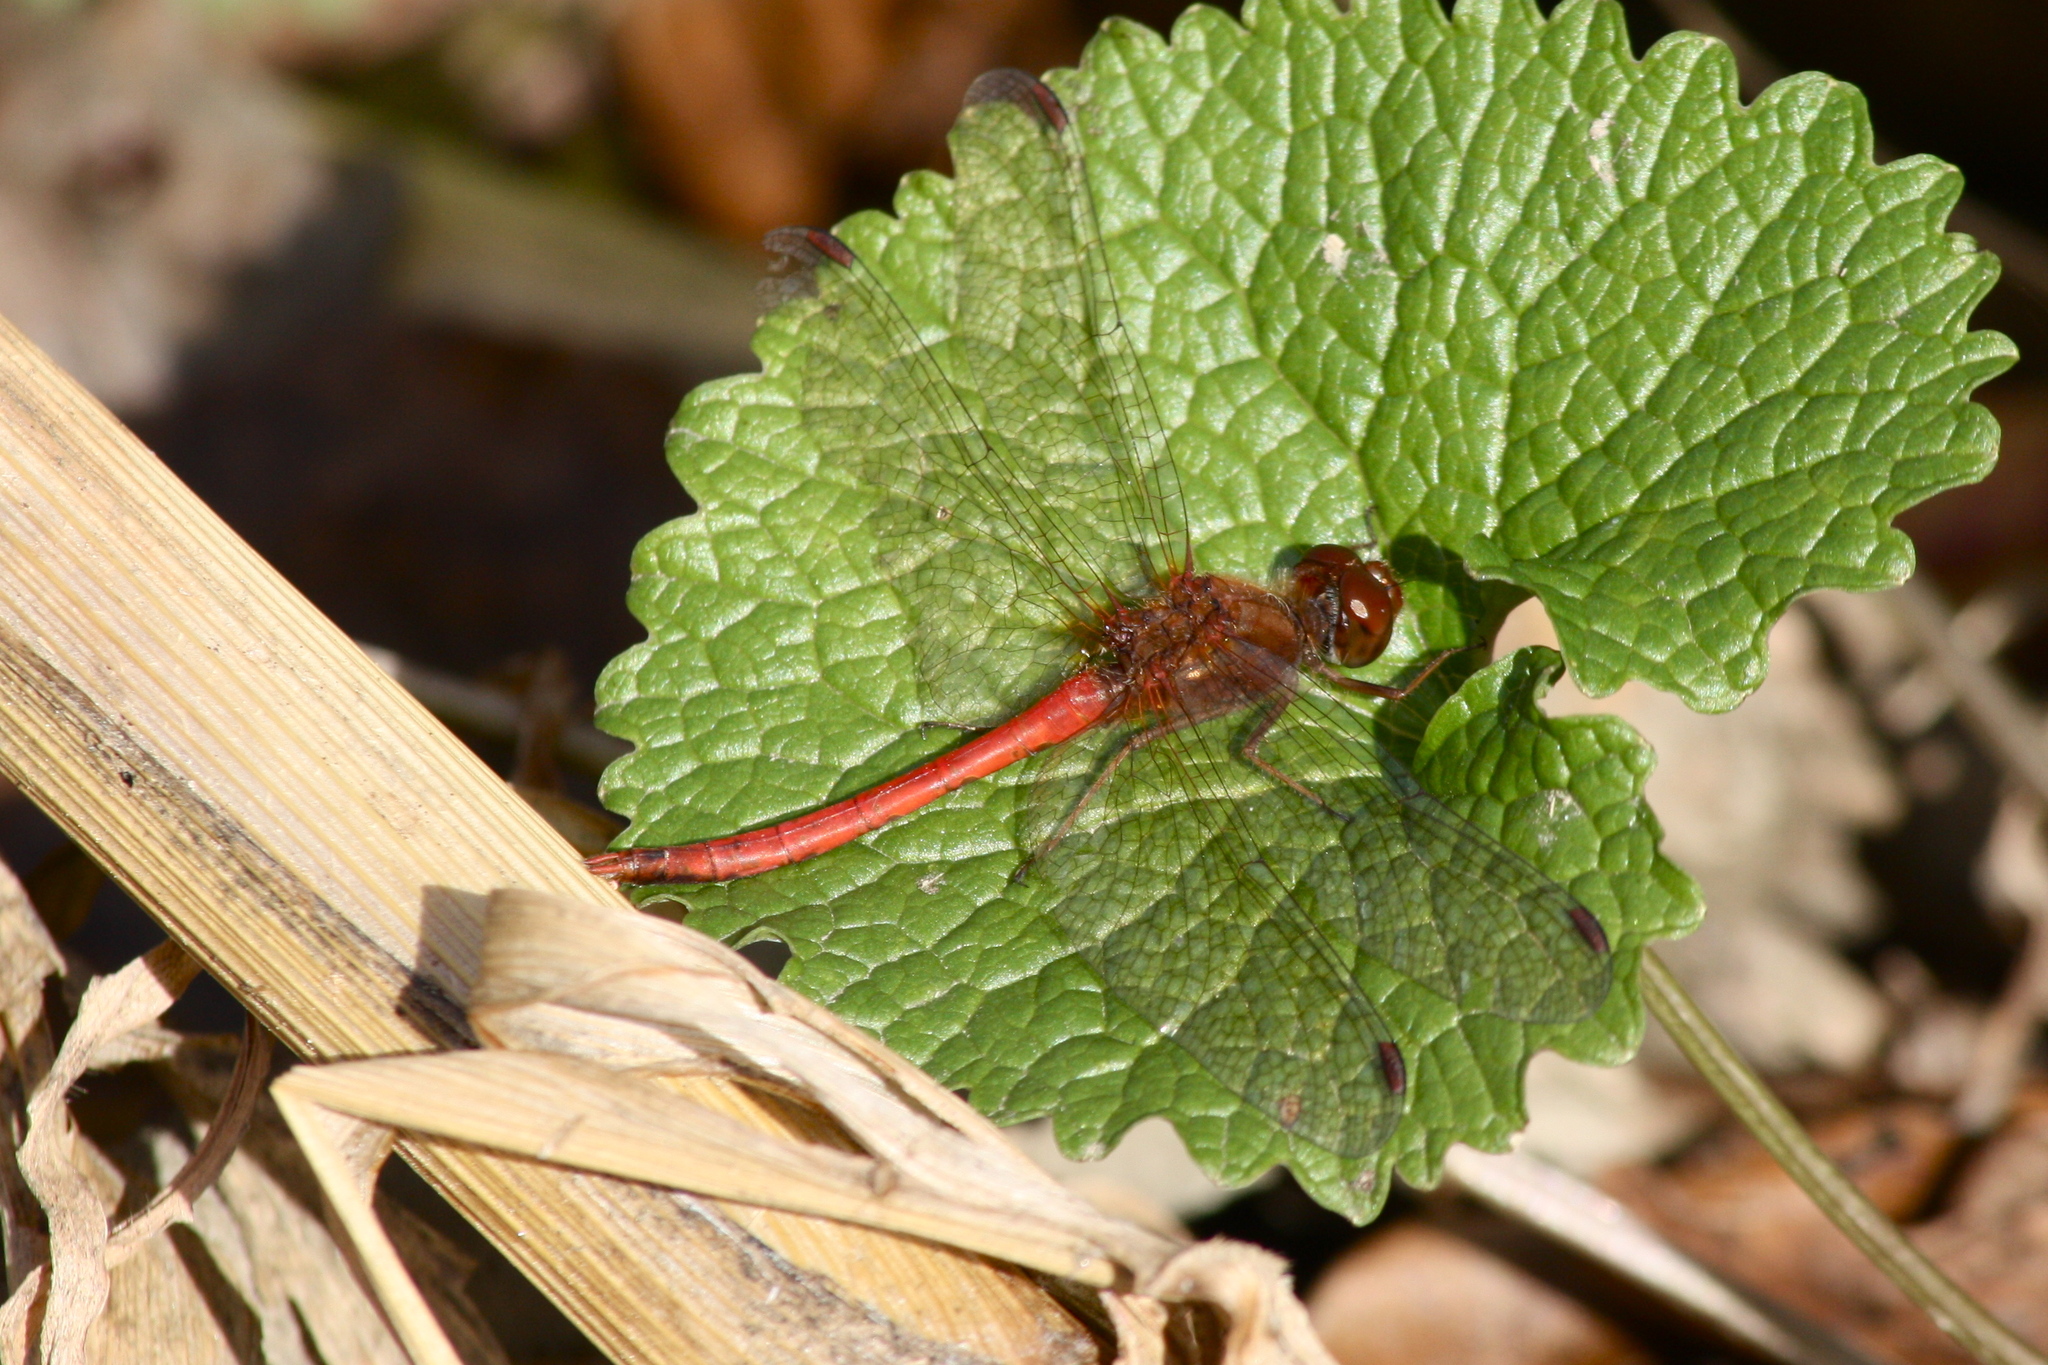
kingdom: Animalia
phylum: Arthropoda
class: Insecta
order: Odonata
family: Libellulidae
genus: Sympetrum
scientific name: Sympetrum vicinum
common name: Autumn meadowhawk
